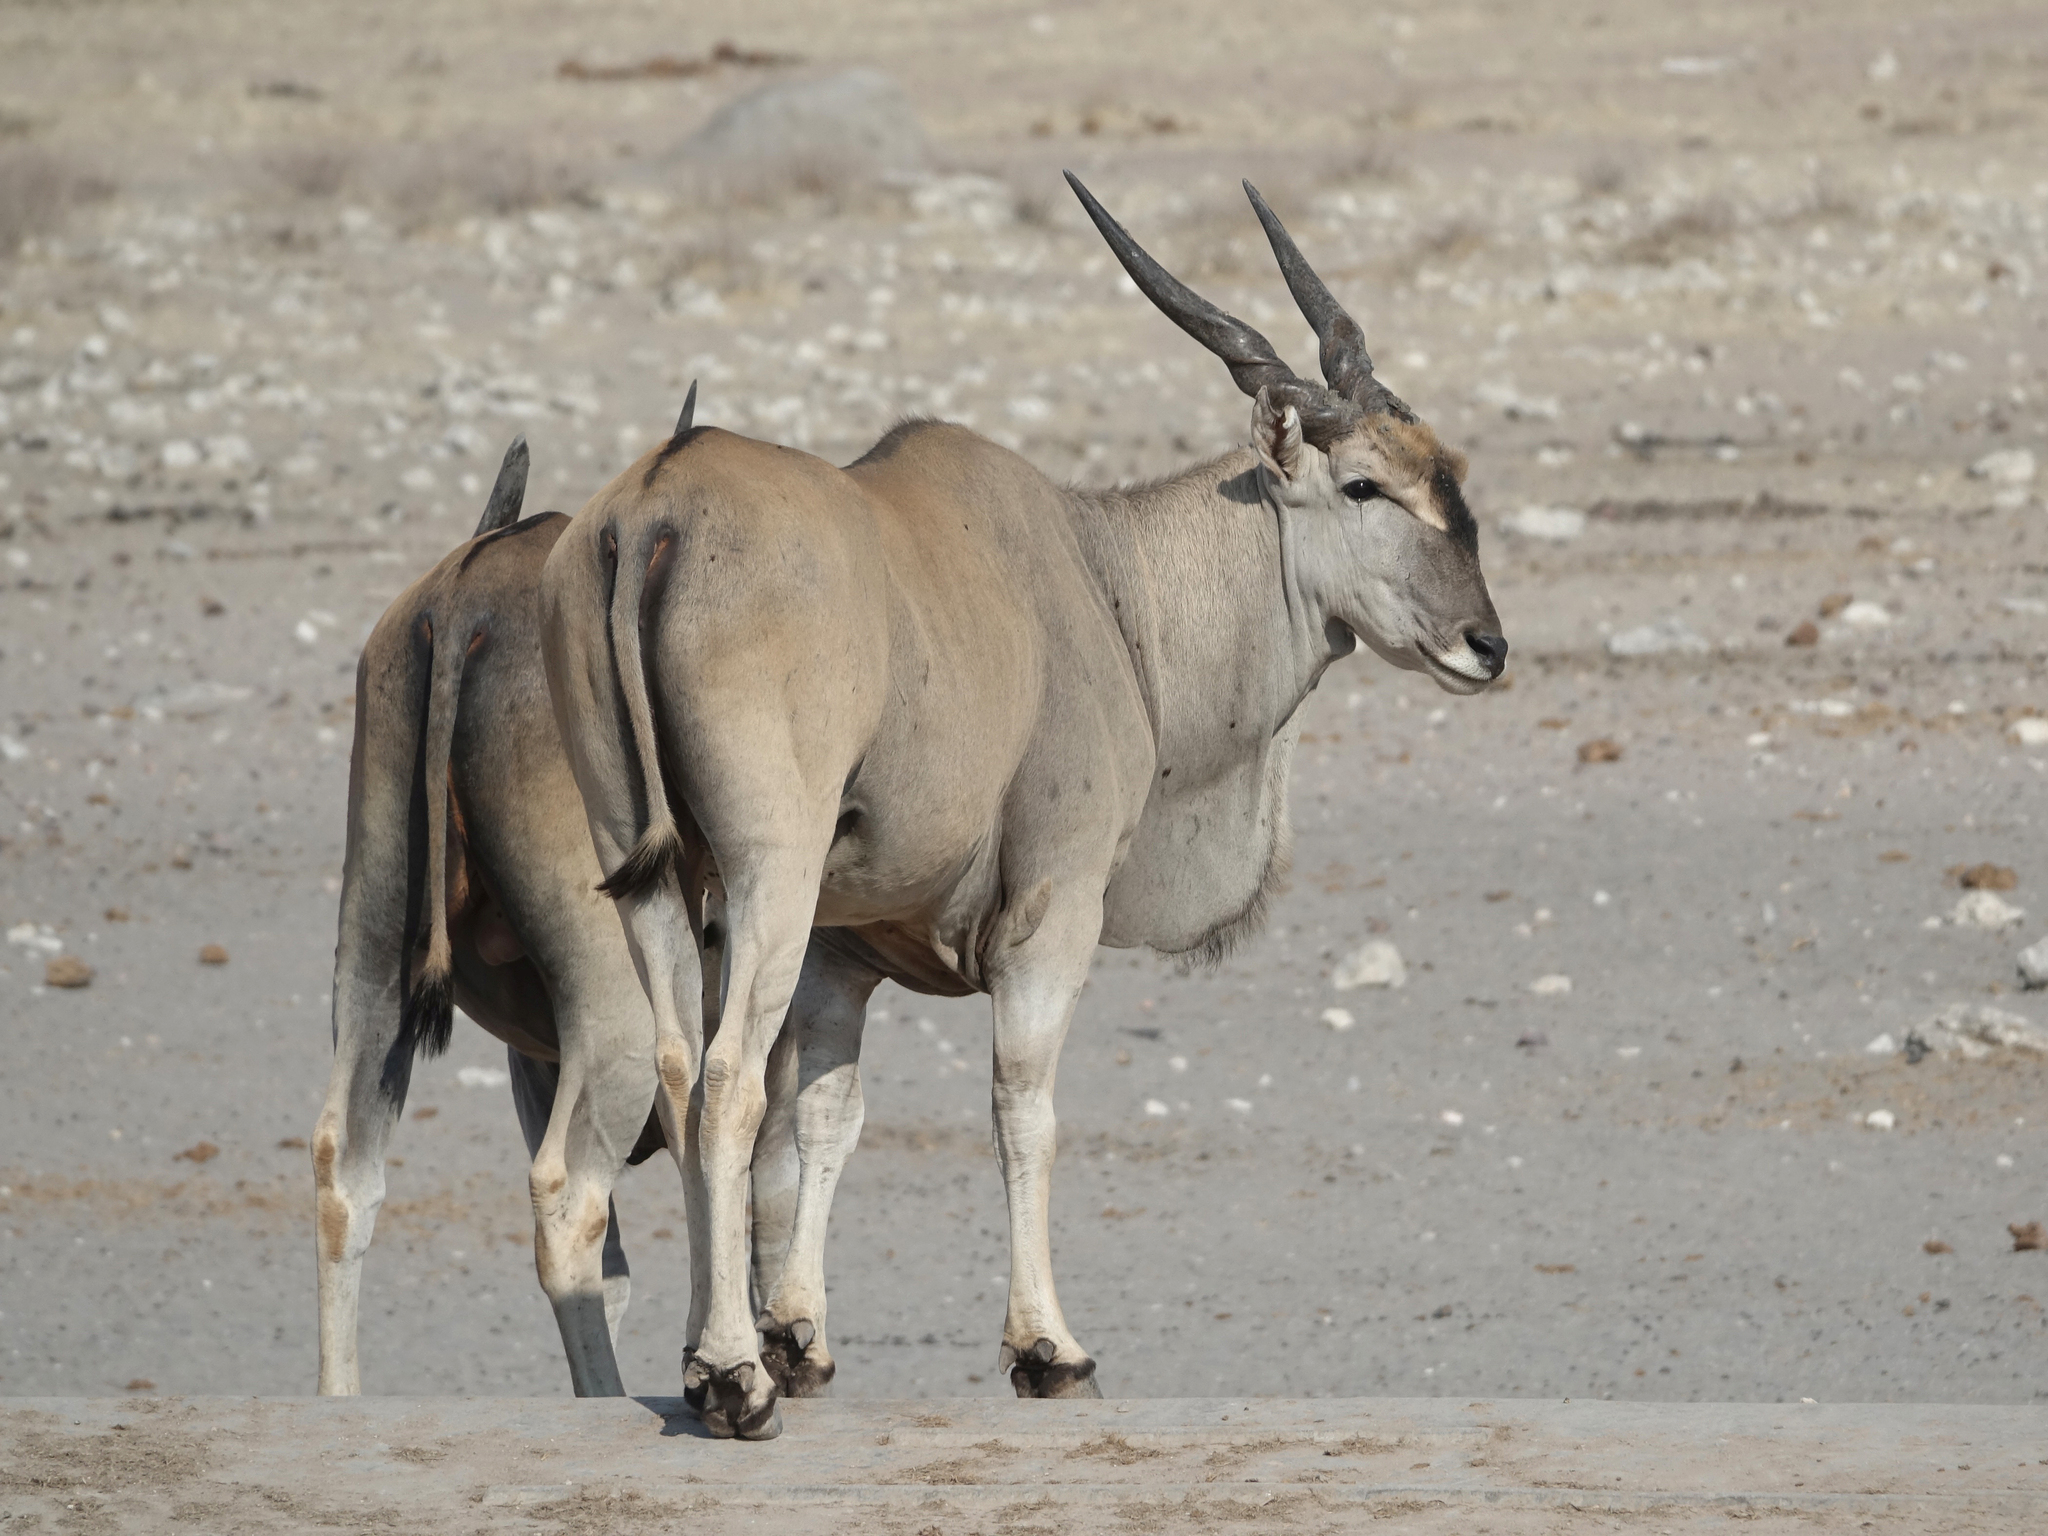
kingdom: Animalia
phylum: Chordata
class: Mammalia
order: Artiodactyla
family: Bovidae
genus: Taurotragus
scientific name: Taurotragus oryx
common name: Common eland
